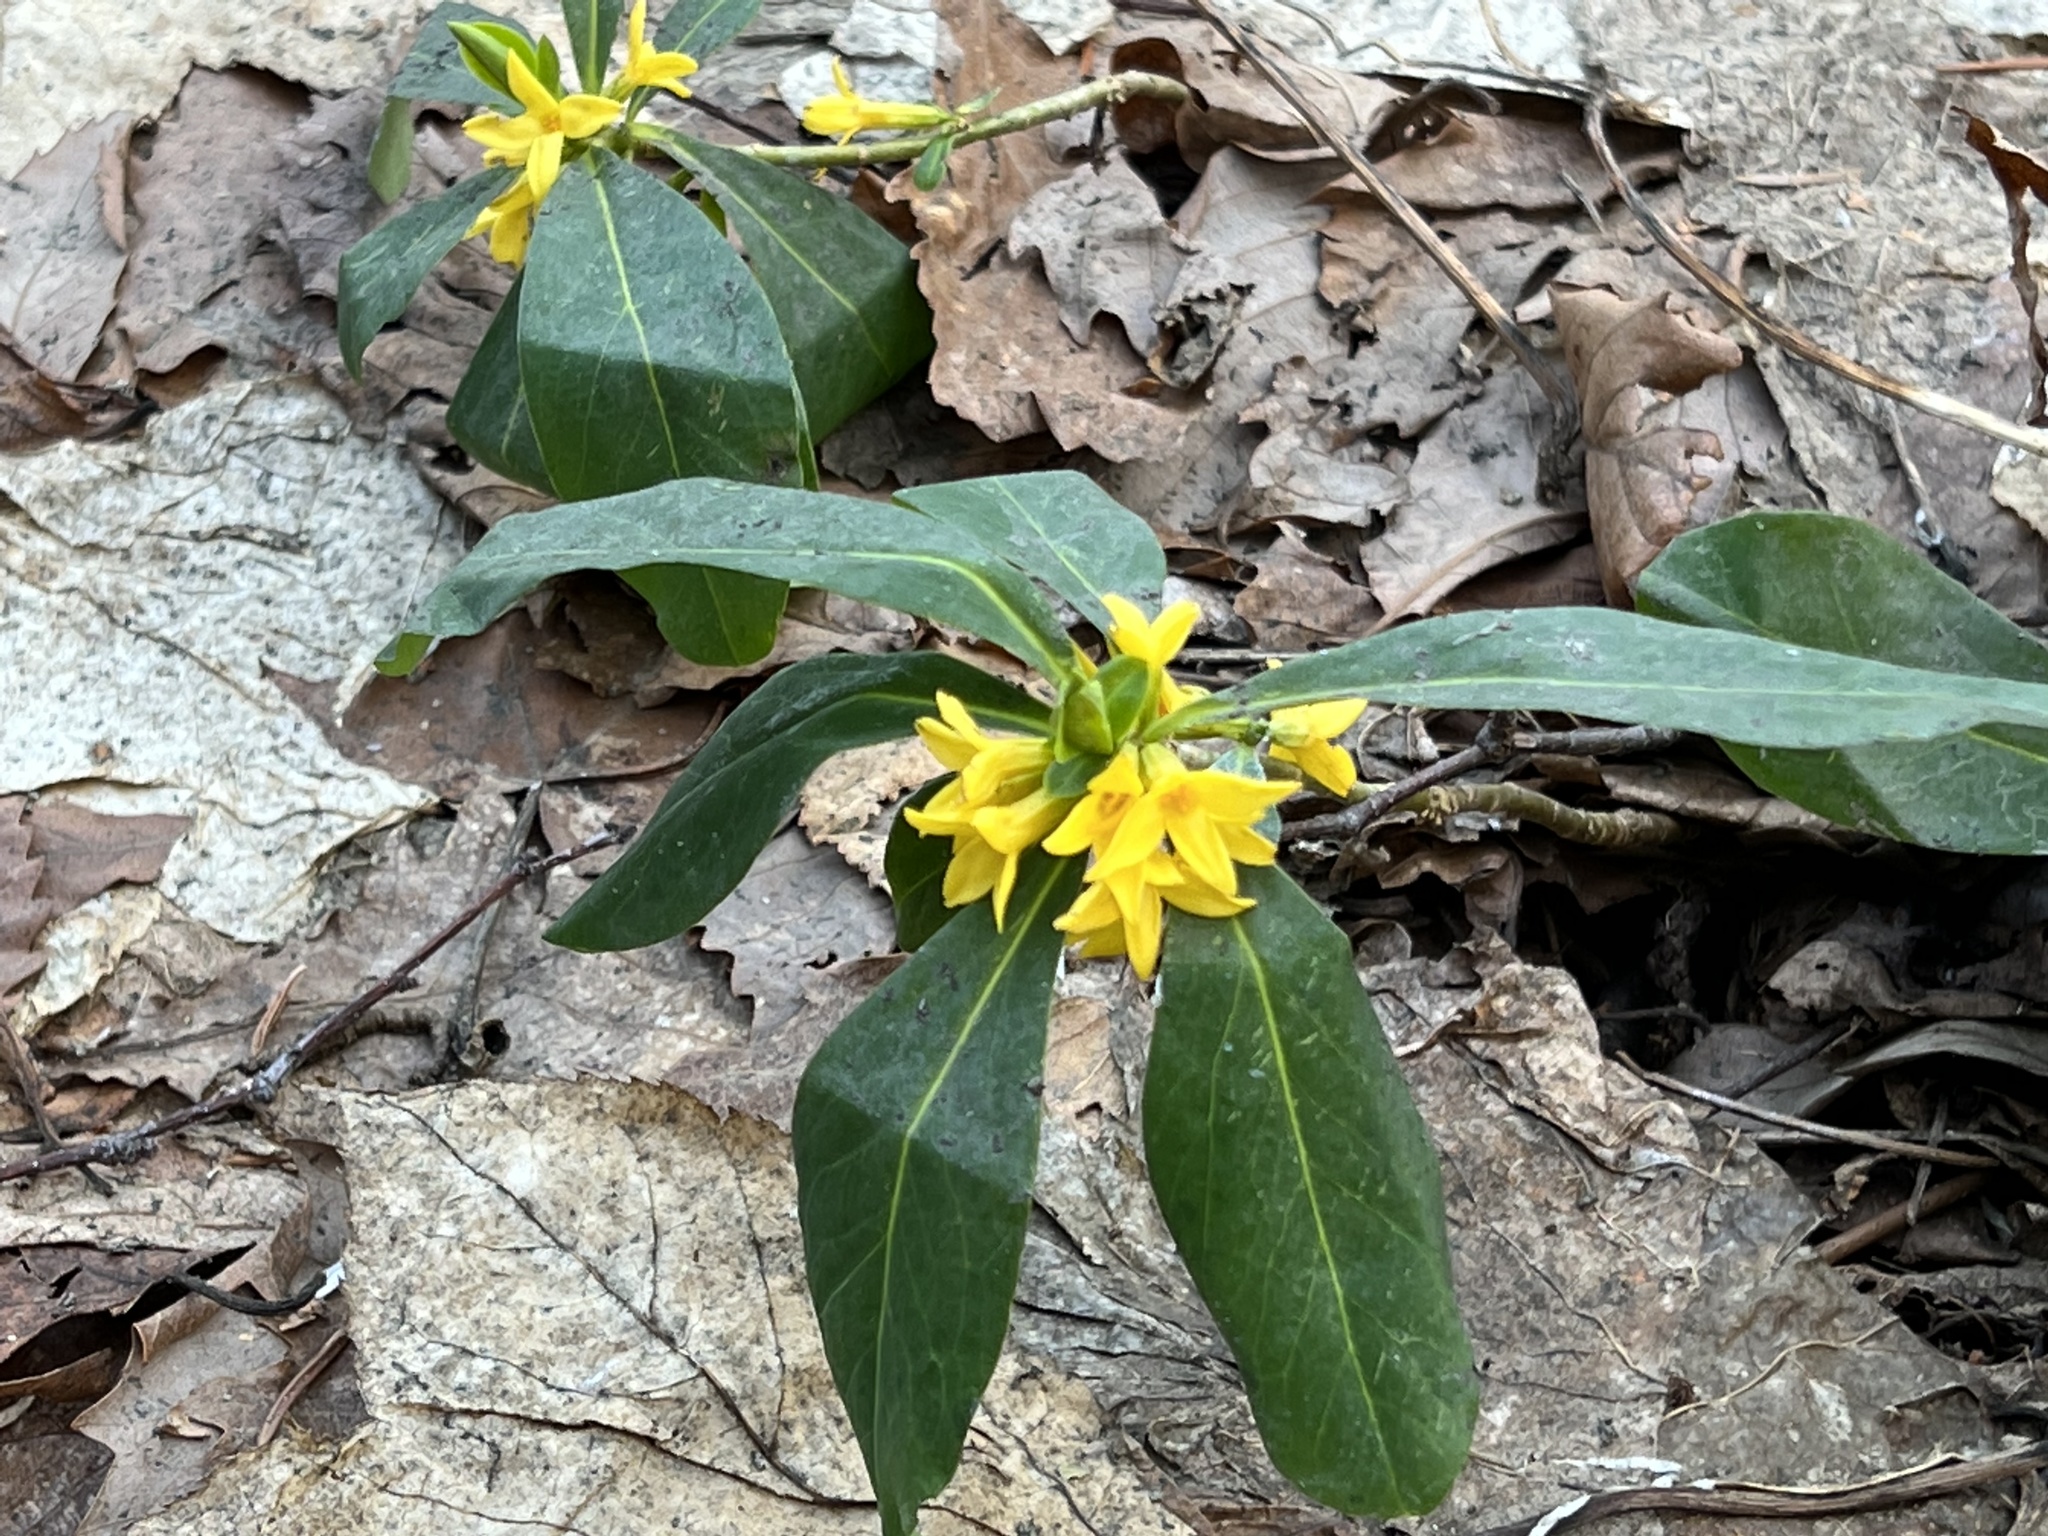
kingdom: Plantae
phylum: Tracheophyta
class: Magnoliopsida
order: Malvales
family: Thymelaeaceae
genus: Daphne
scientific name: Daphne jezoensis
